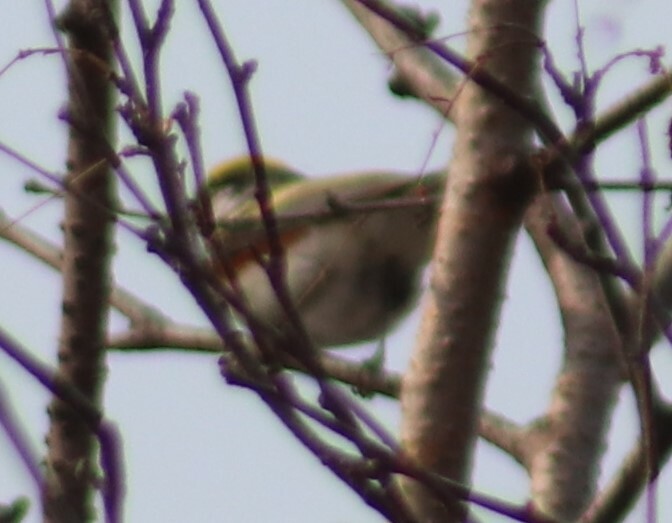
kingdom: Animalia
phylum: Chordata
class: Aves
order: Passeriformes
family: Parulidae
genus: Setophaga
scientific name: Setophaga pensylvanica
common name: Chestnut-sided warbler
